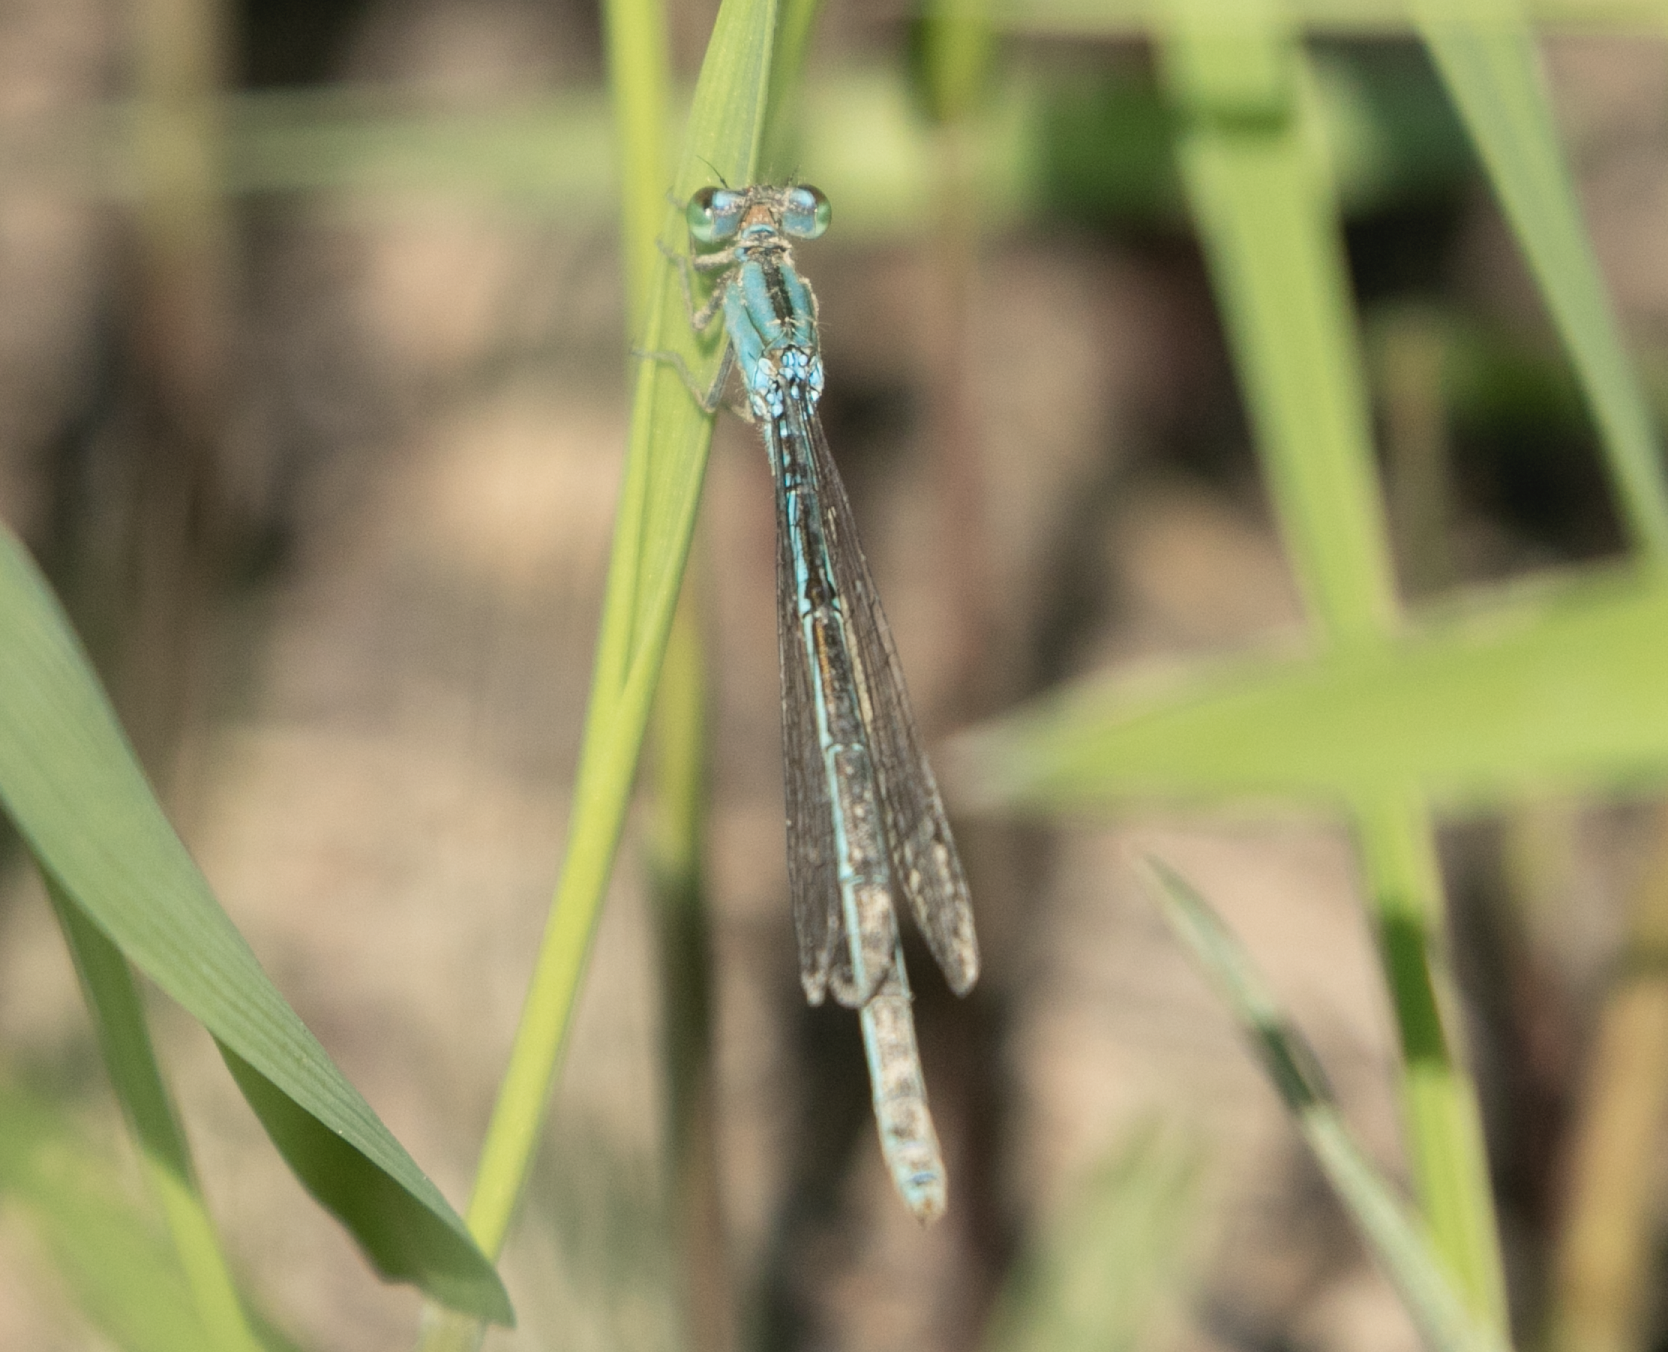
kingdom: Animalia
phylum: Arthropoda
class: Insecta
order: Odonata
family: Coenagrionidae
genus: Ischnura
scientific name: Ischnura pumilio
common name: Scarce blue-tailed damselfly
